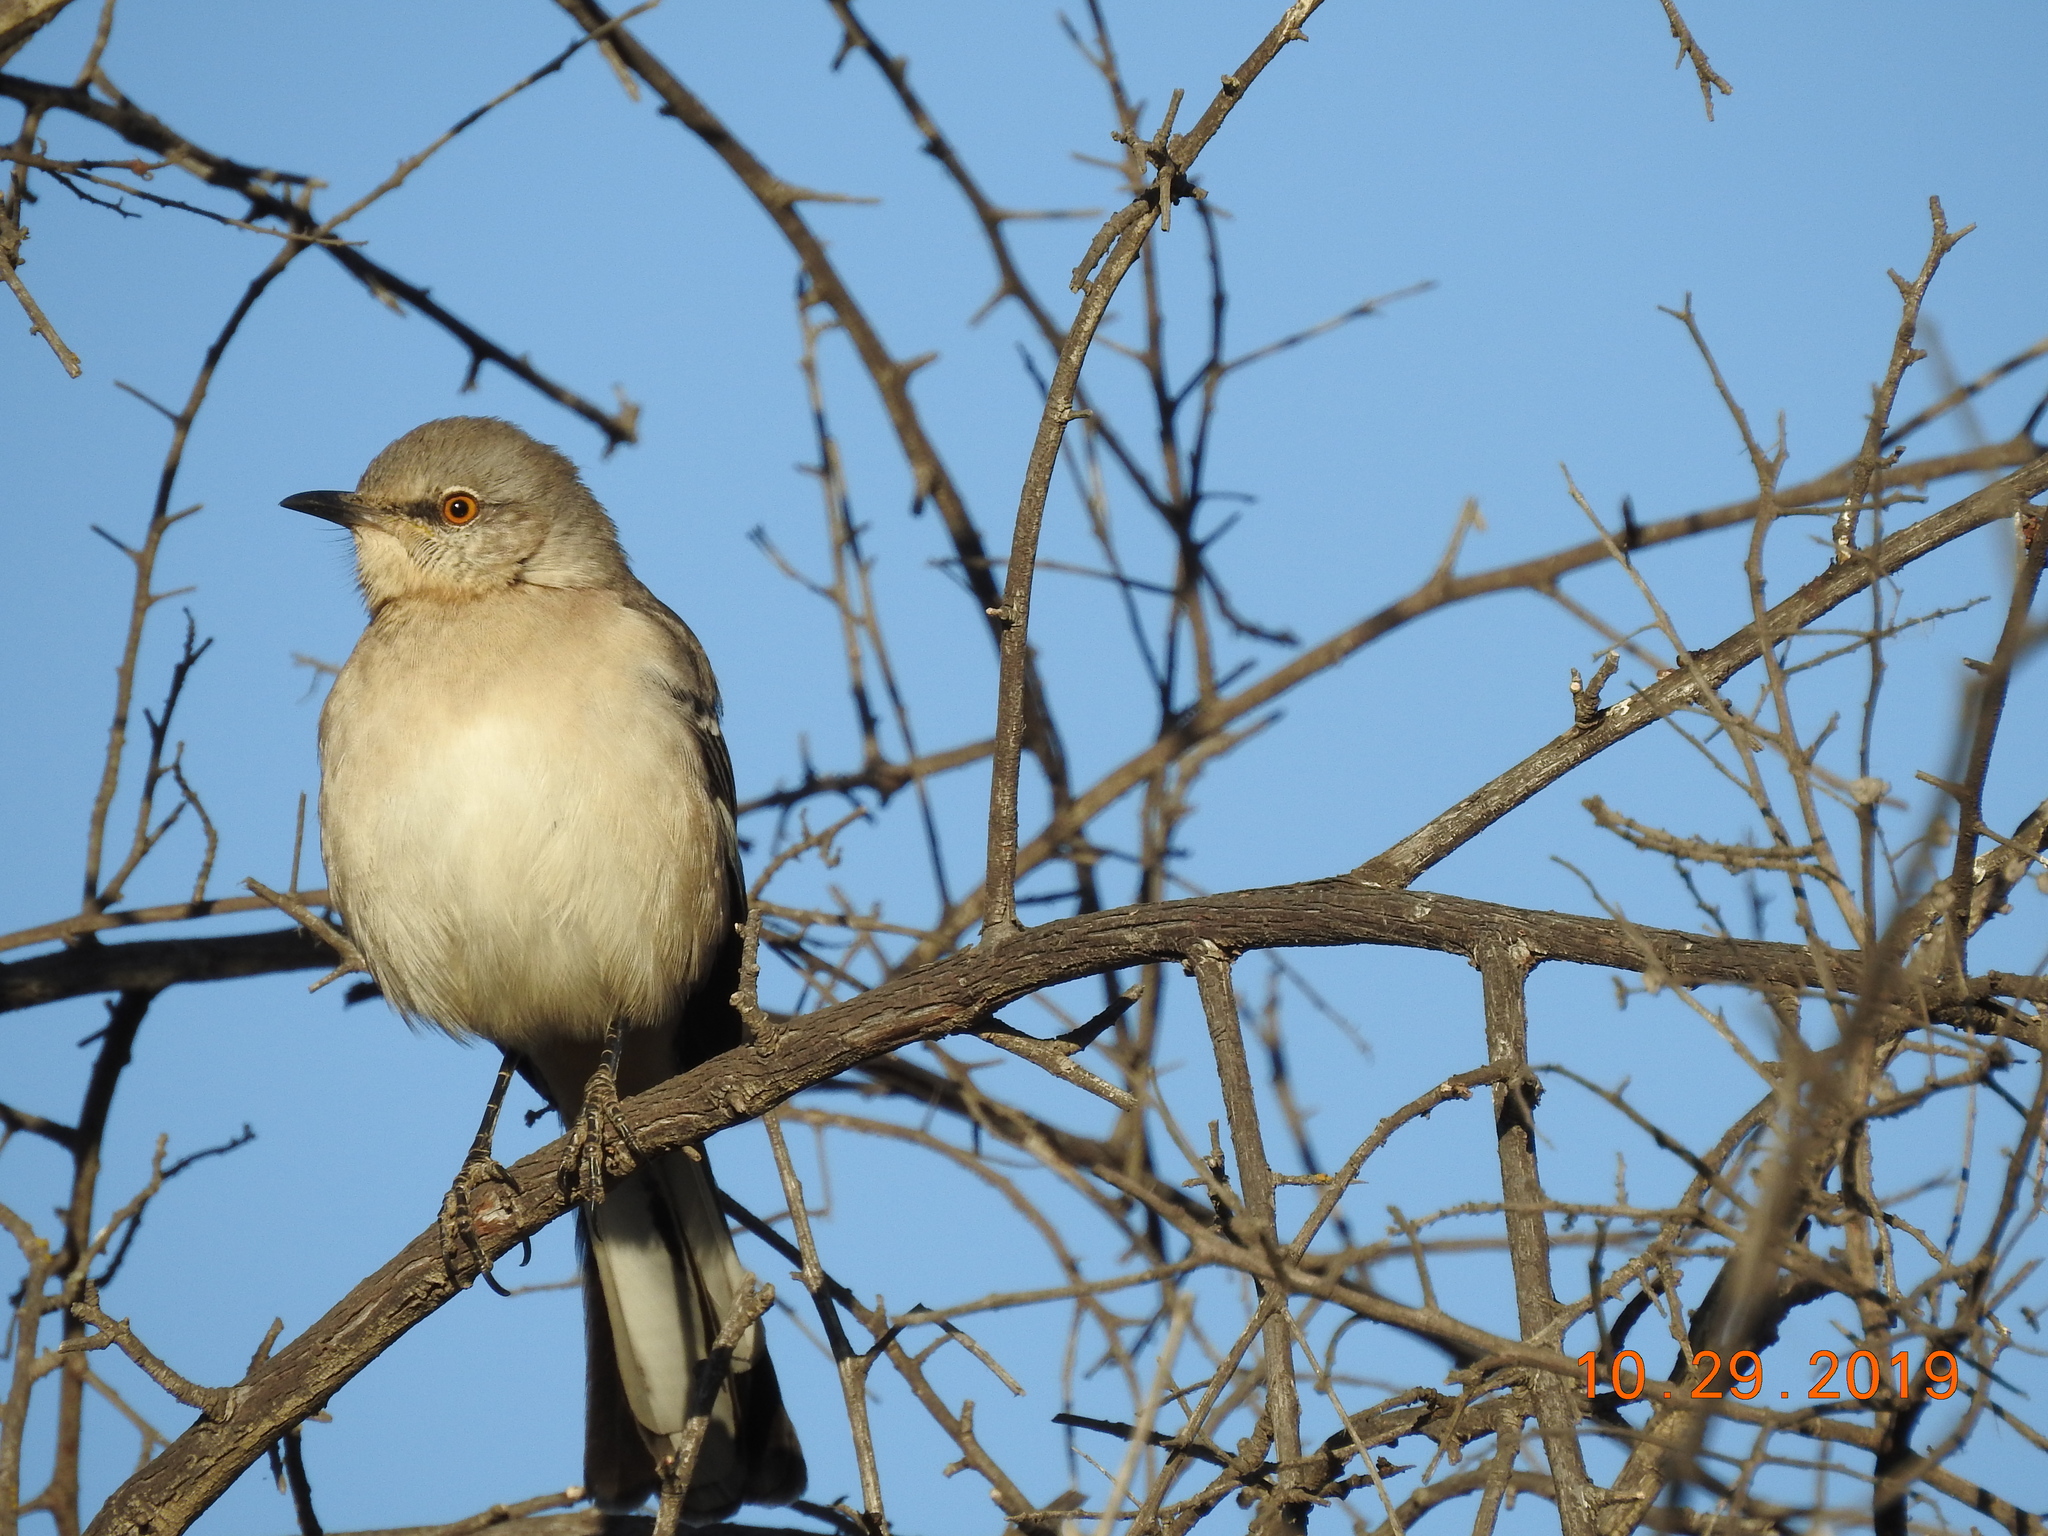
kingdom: Animalia
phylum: Chordata
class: Aves
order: Passeriformes
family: Mimidae
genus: Mimus
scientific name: Mimus polyglottos
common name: Northern mockingbird
